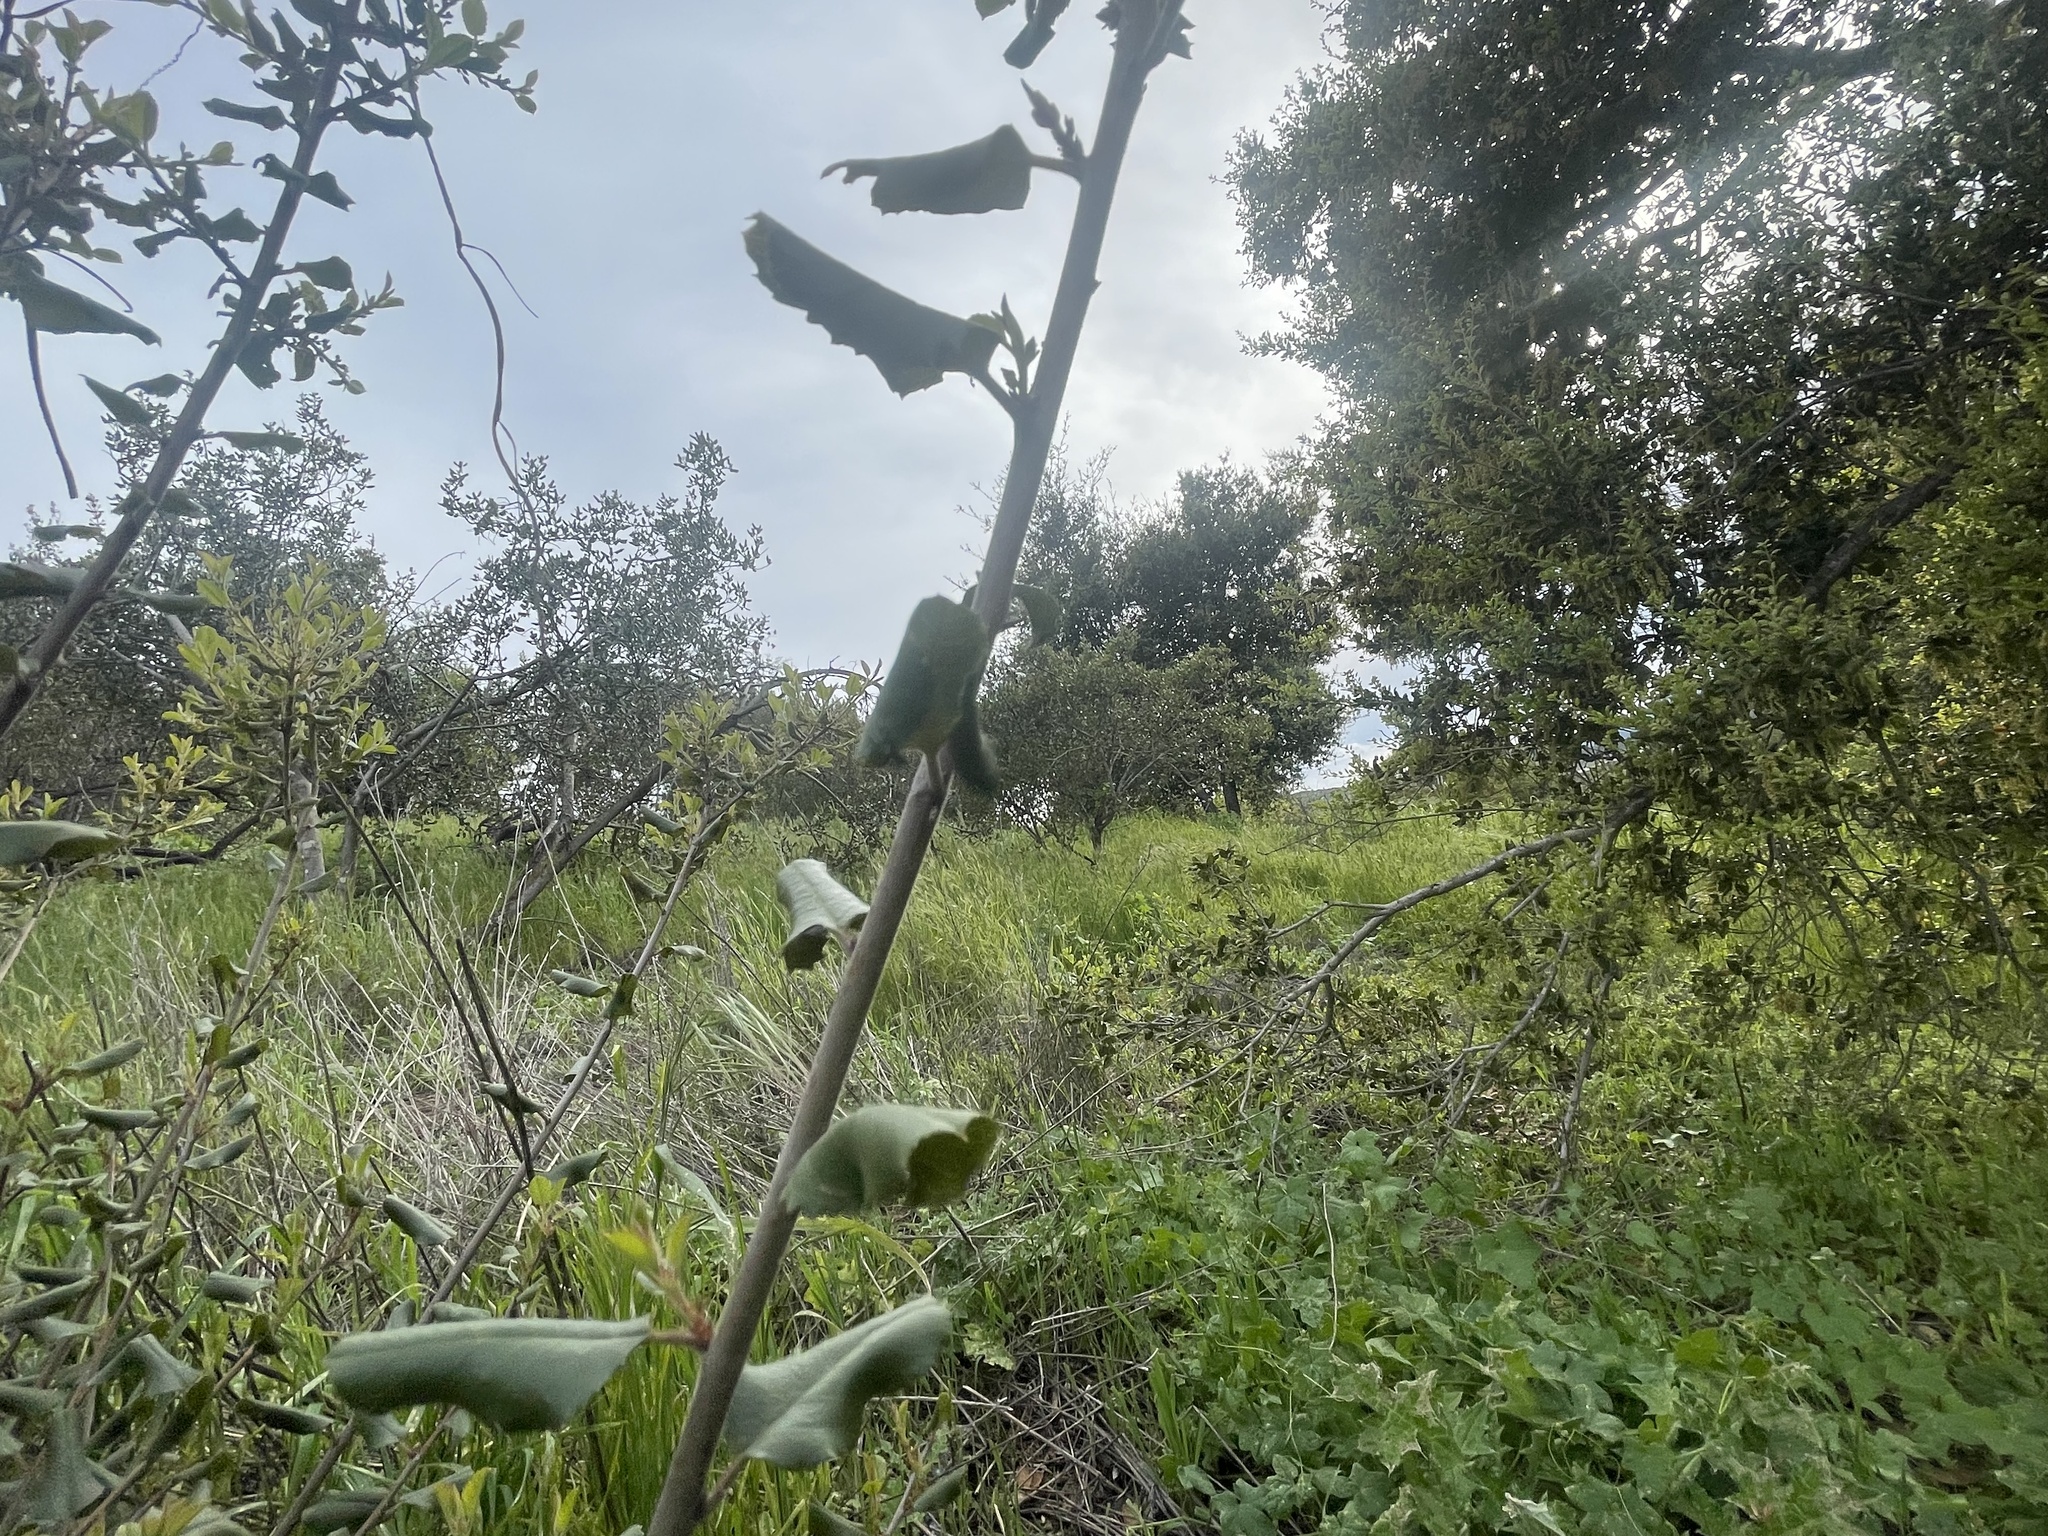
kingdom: Plantae
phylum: Tracheophyta
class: Magnoliopsida
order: Rosales
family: Rhamnaceae
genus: Endotropis
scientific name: Endotropis crocea
